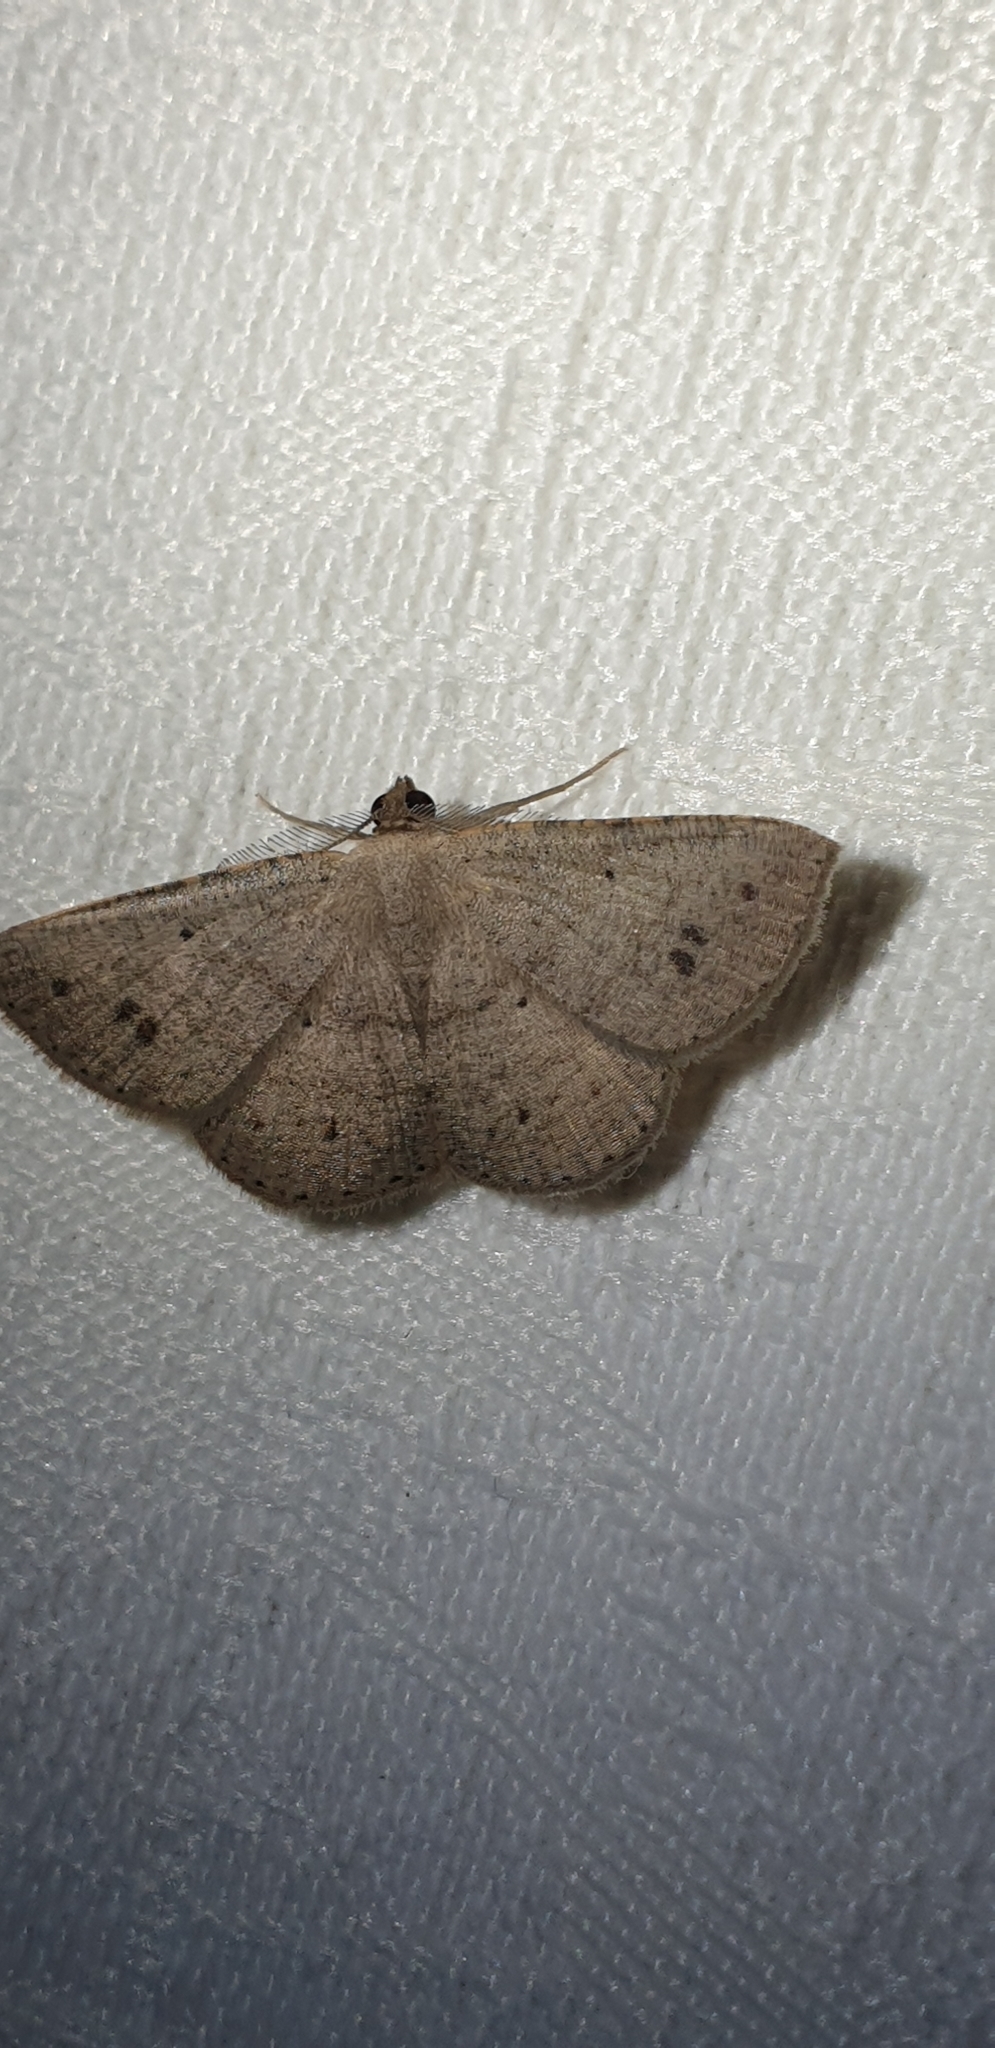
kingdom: Animalia
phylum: Arthropoda
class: Insecta
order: Lepidoptera
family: Geometridae
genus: Casbia
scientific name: Casbia rectaria
